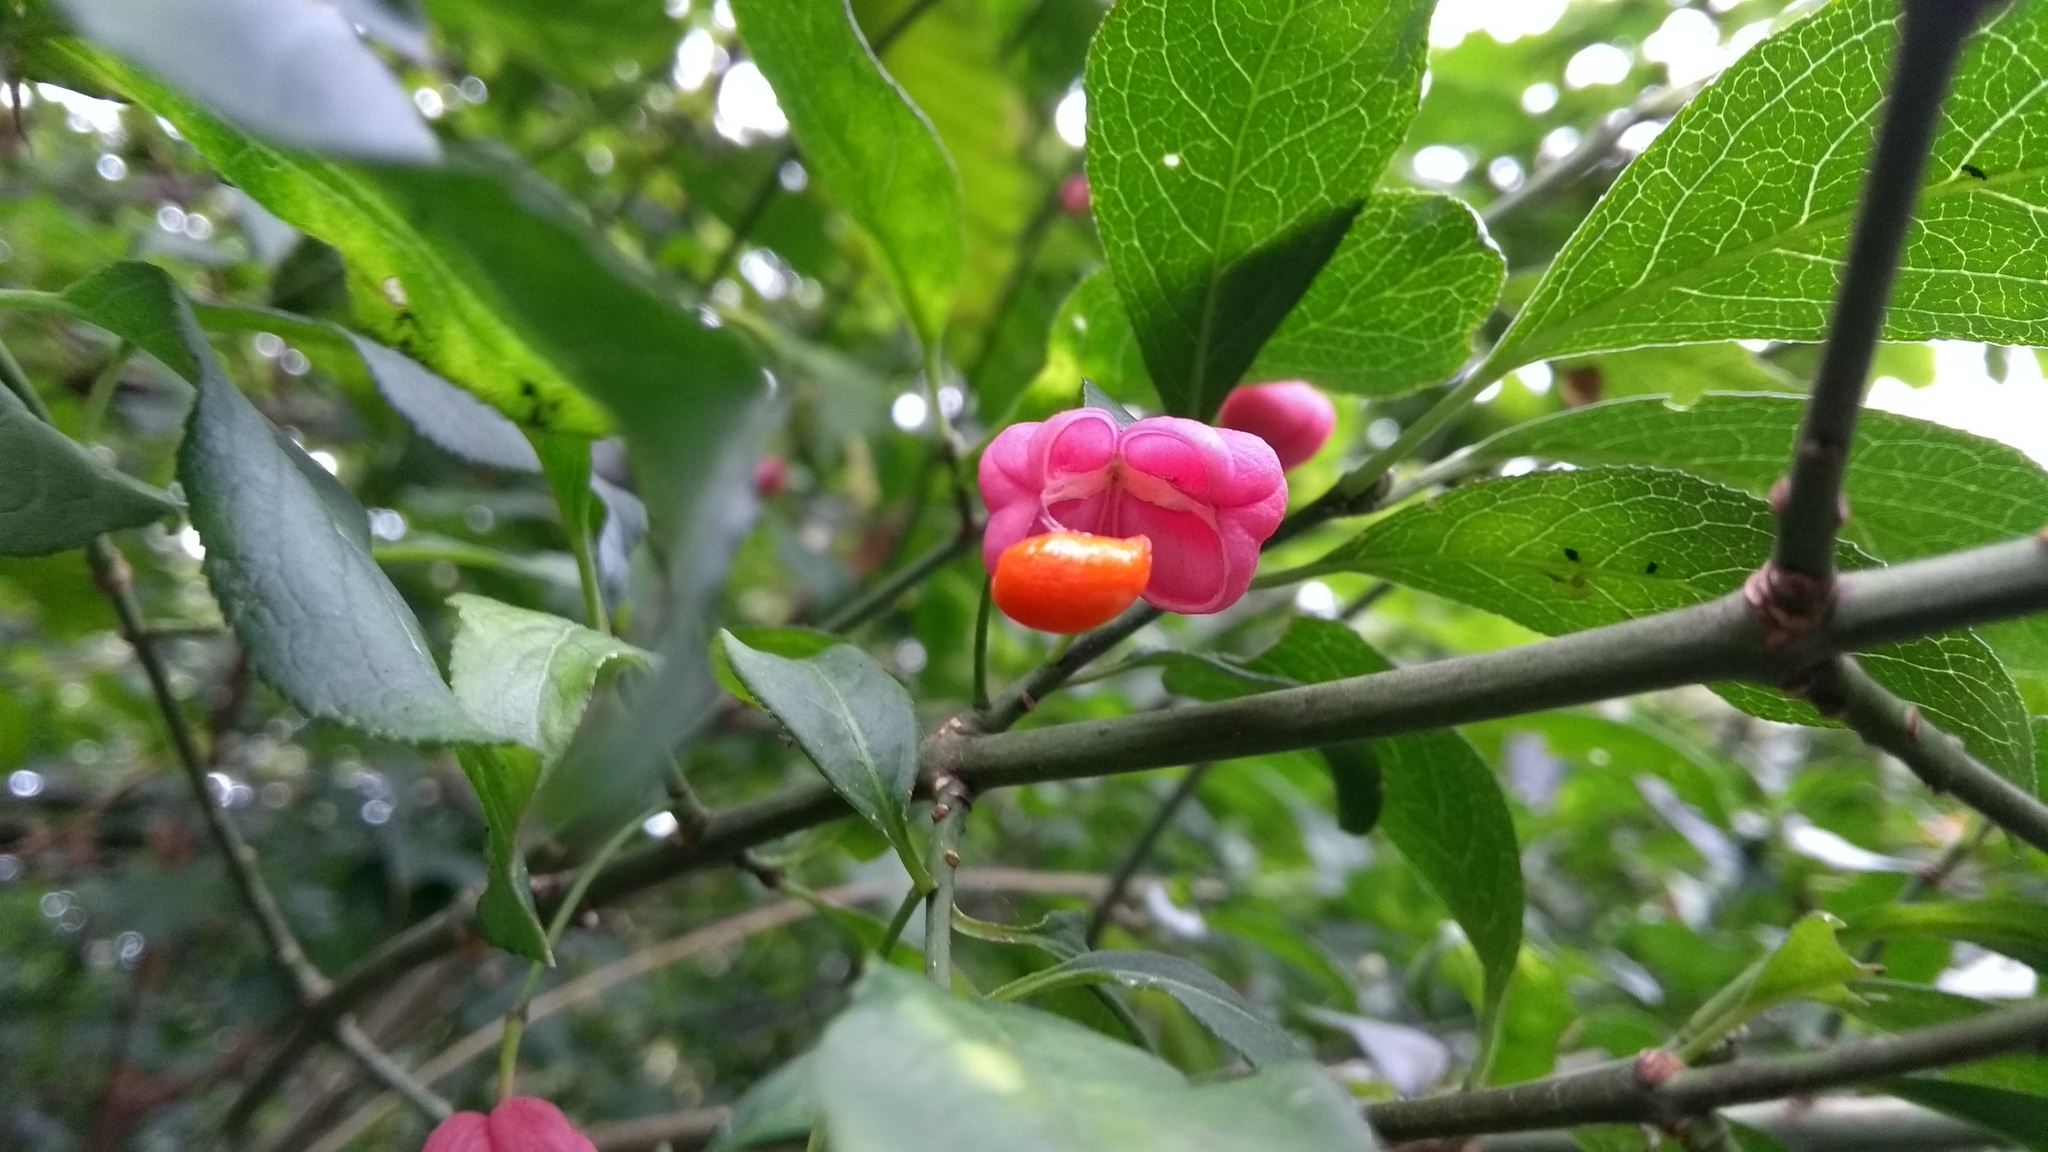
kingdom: Plantae
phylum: Tracheophyta
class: Magnoliopsida
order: Celastrales
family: Celastraceae
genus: Euonymus
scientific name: Euonymus europaeus
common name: Spindle
